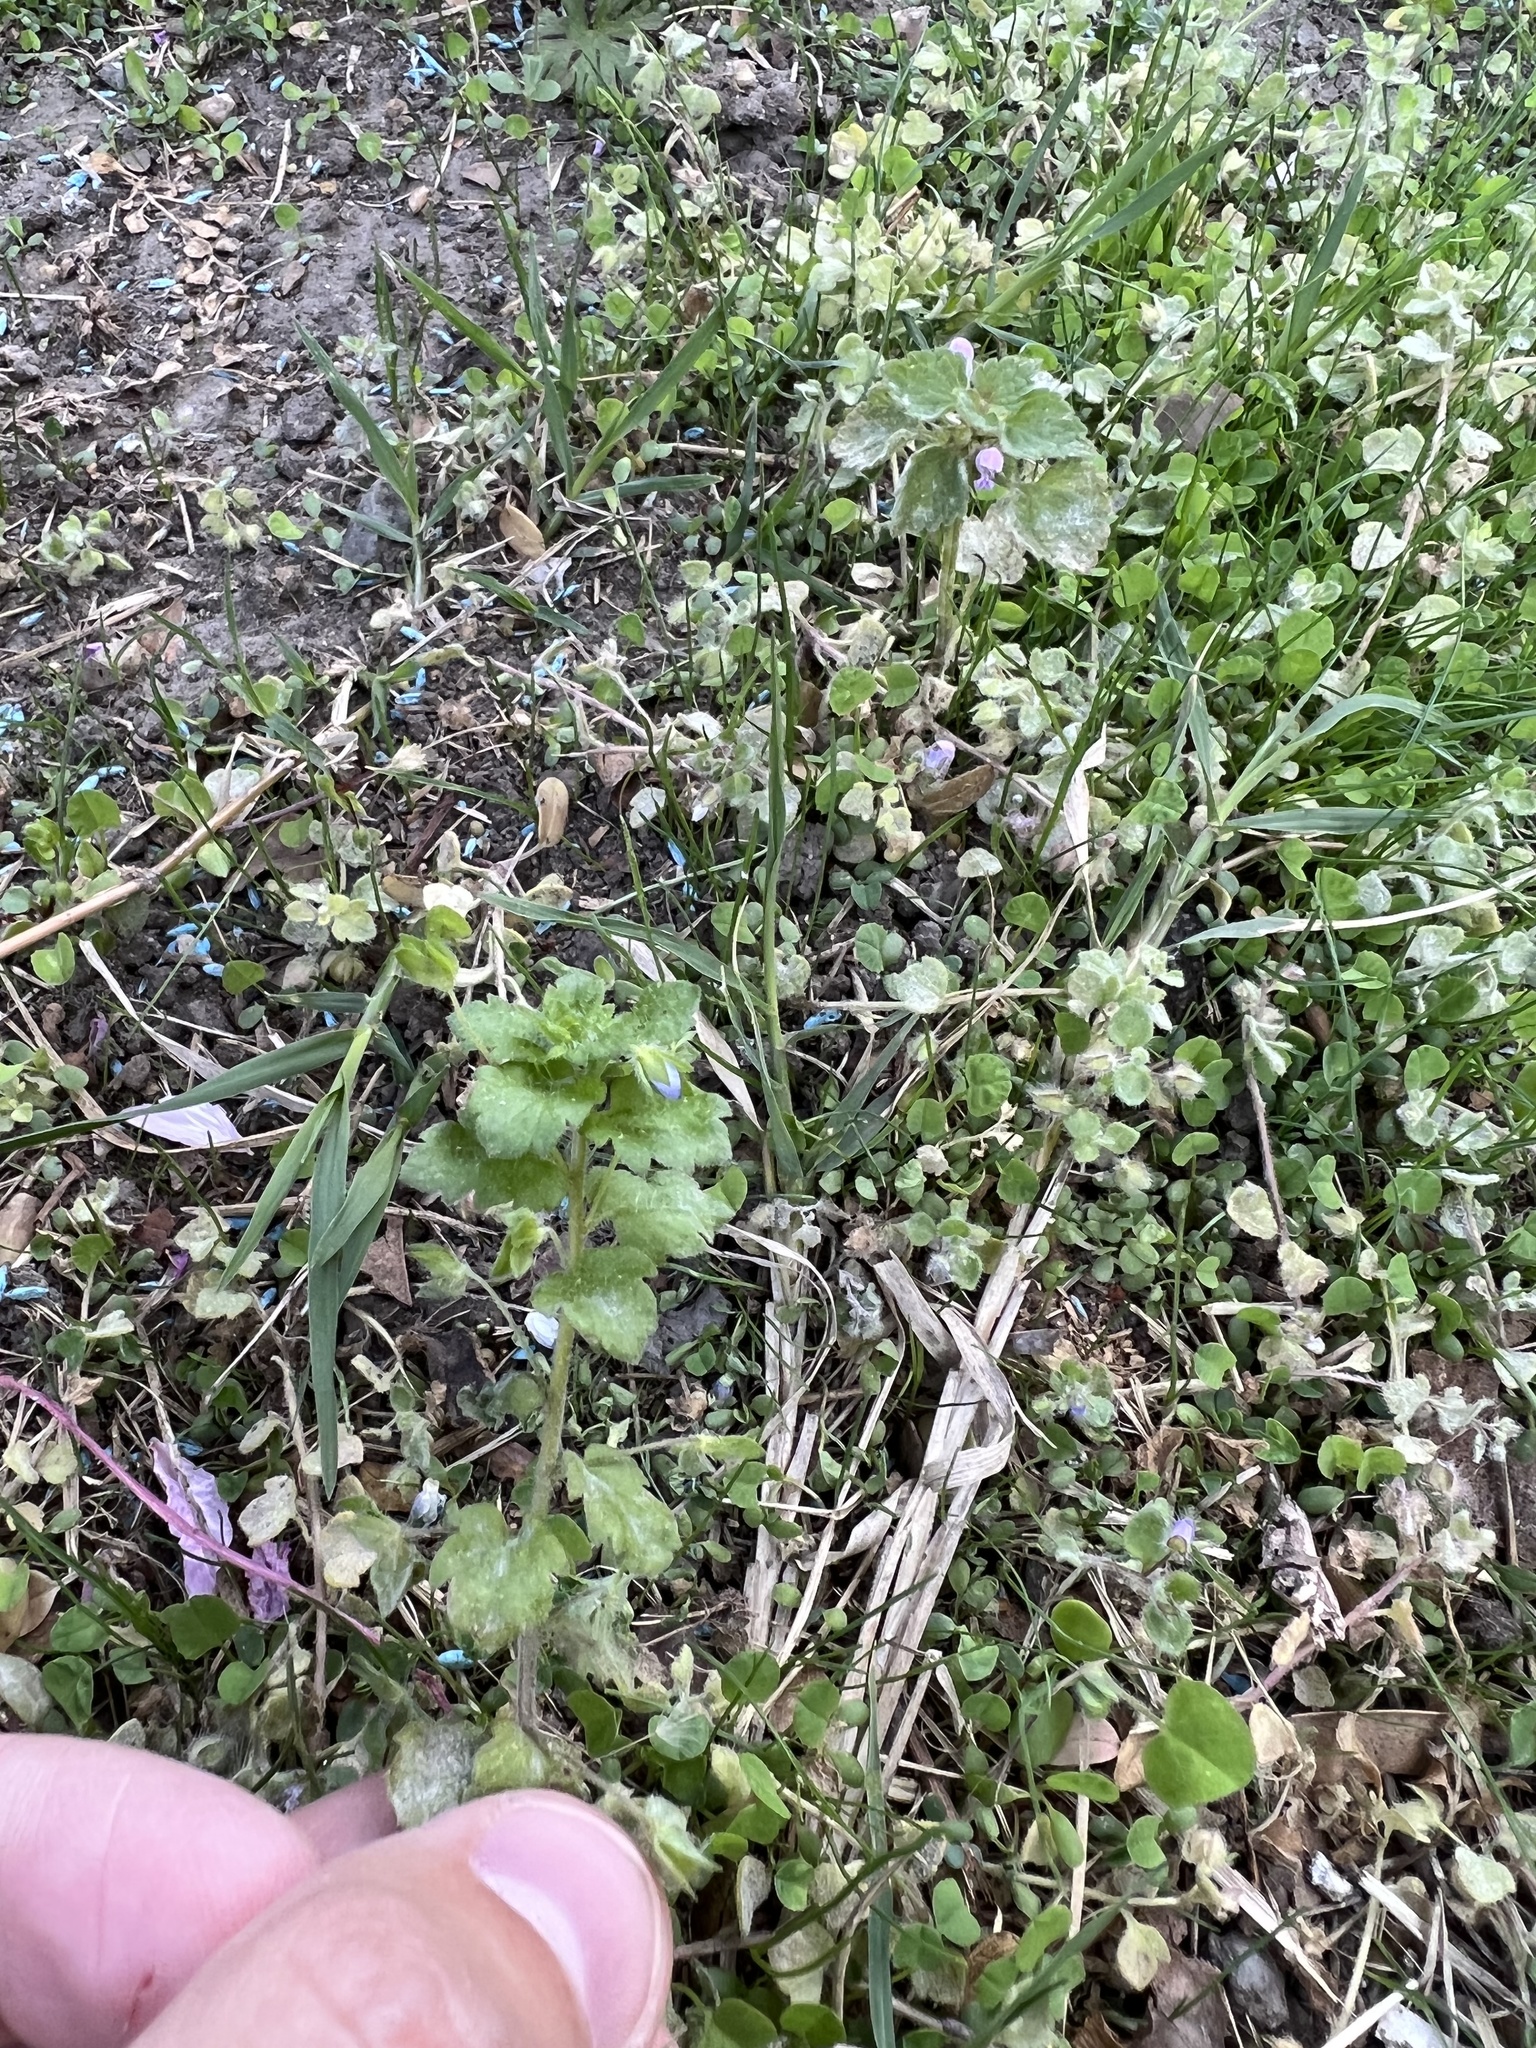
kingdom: Plantae
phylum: Tracheophyta
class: Magnoliopsida
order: Lamiales
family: Plantaginaceae
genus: Veronica
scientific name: Veronica persica
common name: Common field-speedwell
